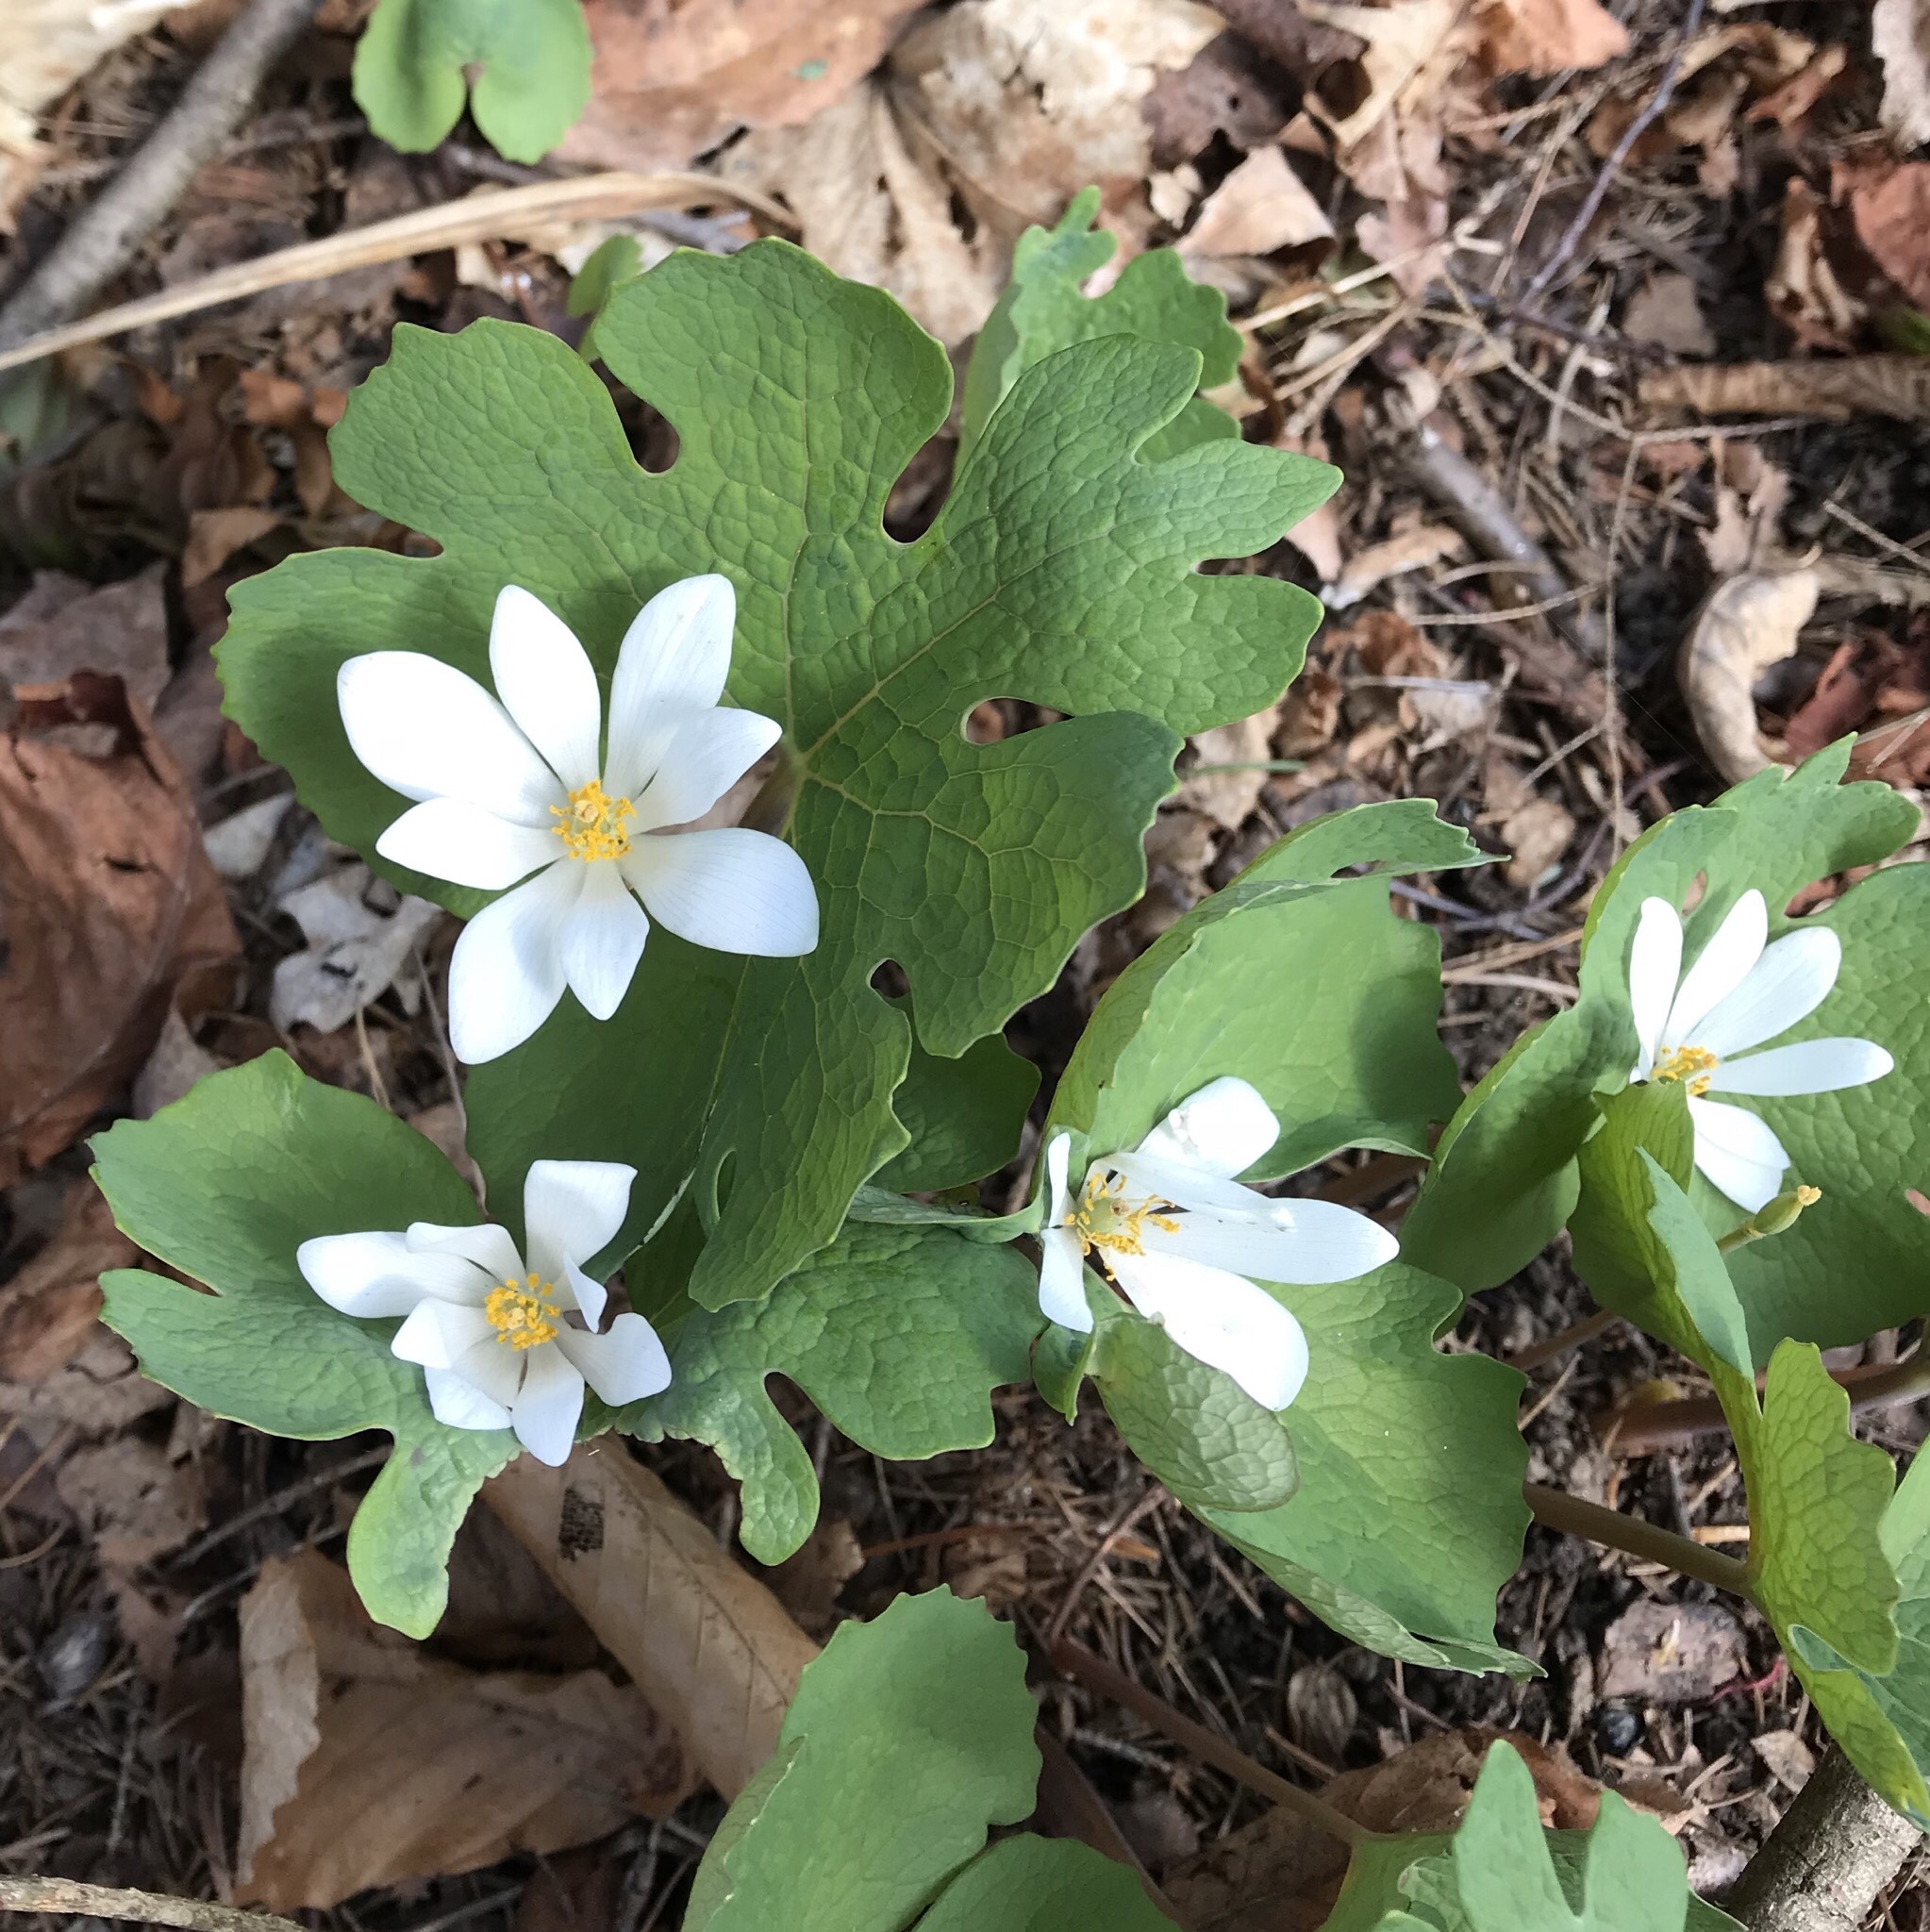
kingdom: Plantae
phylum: Tracheophyta
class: Magnoliopsida
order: Ranunculales
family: Papaveraceae
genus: Sanguinaria
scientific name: Sanguinaria canadensis
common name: Bloodroot
